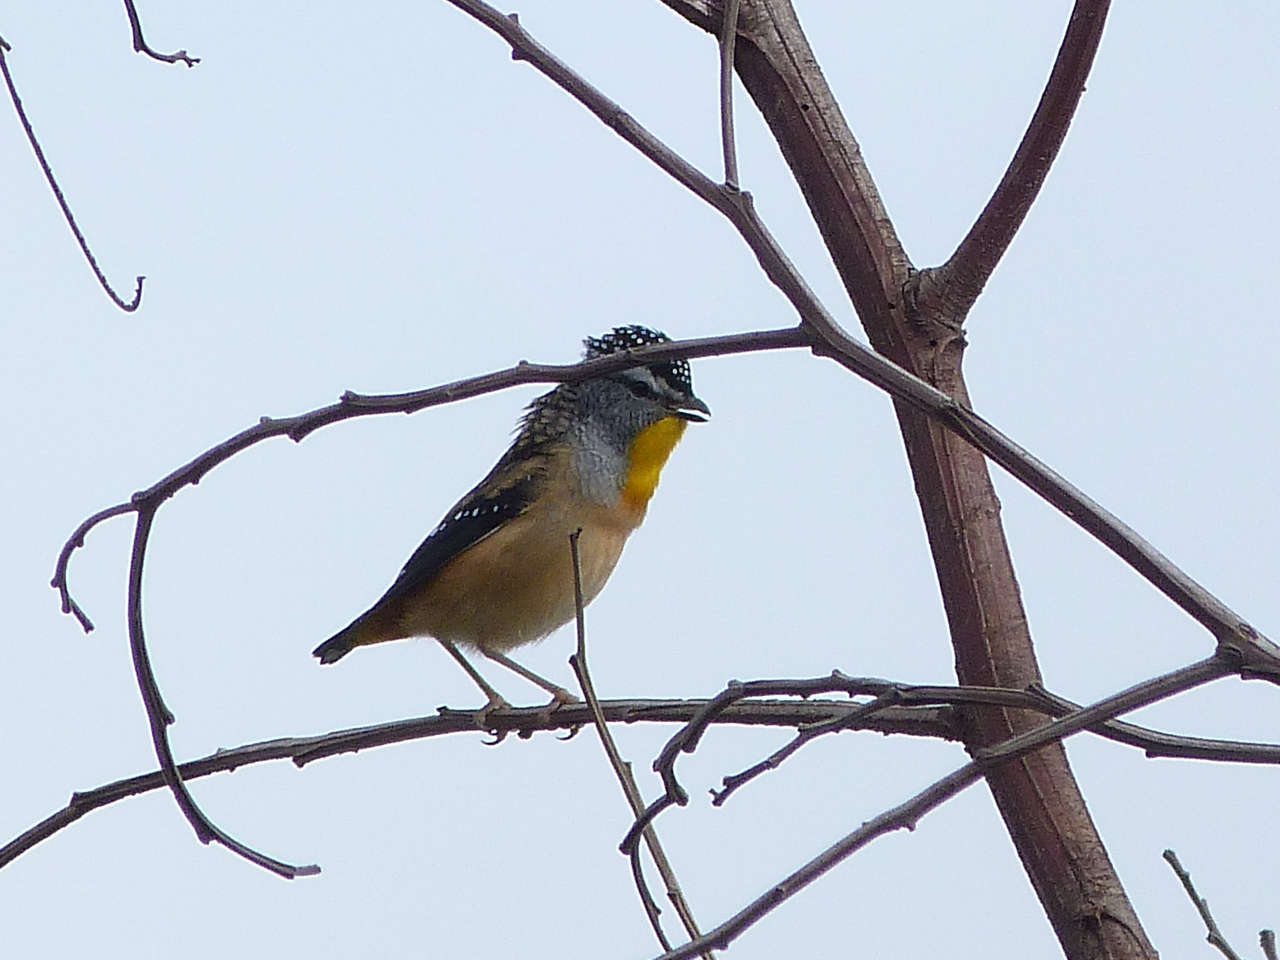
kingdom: Animalia
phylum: Chordata
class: Aves
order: Passeriformes
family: Pardalotidae
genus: Pardalotus
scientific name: Pardalotus punctatus
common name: Spotted pardalote
